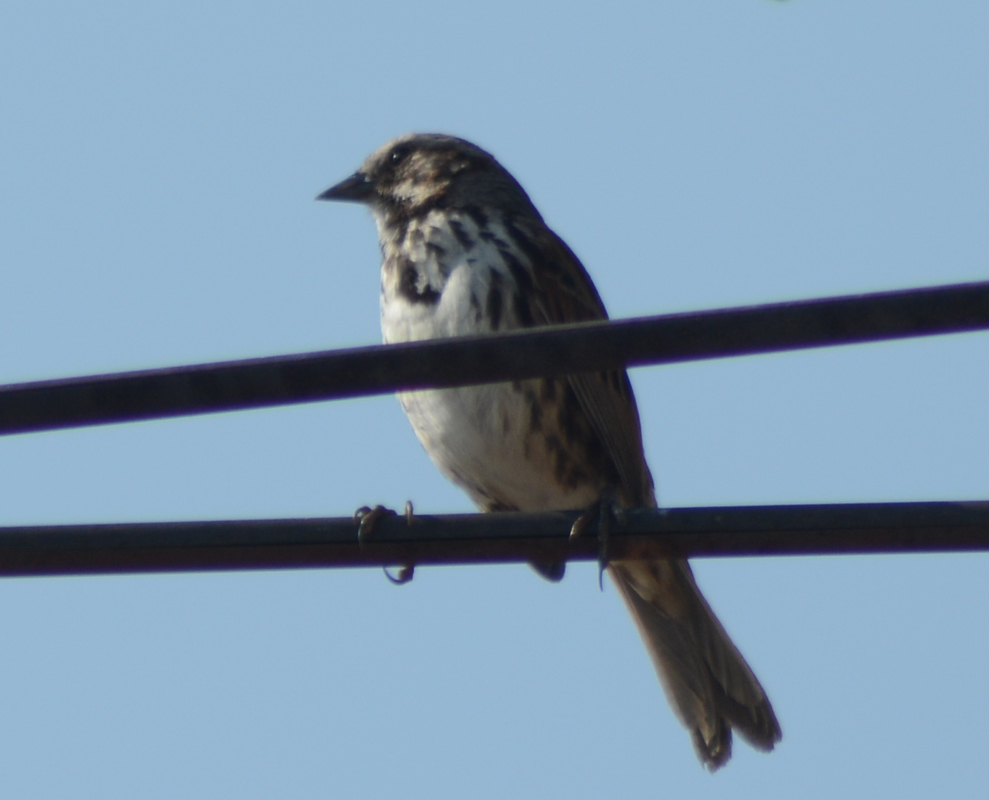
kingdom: Animalia
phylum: Chordata
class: Aves
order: Passeriformes
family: Passerellidae
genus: Melospiza
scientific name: Melospiza melodia
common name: Song sparrow
